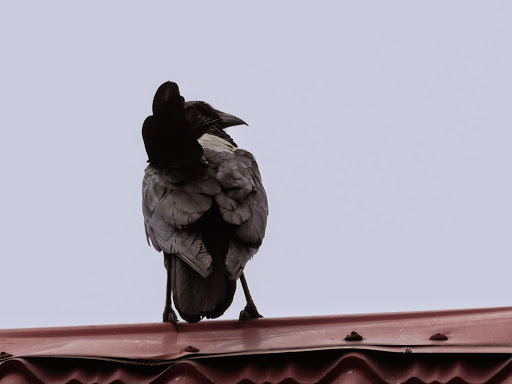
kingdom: Animalia
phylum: Chordata
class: Aves
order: Passeriformes
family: Corvidae
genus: Corvus
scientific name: Corvus albus
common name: Pied crow
